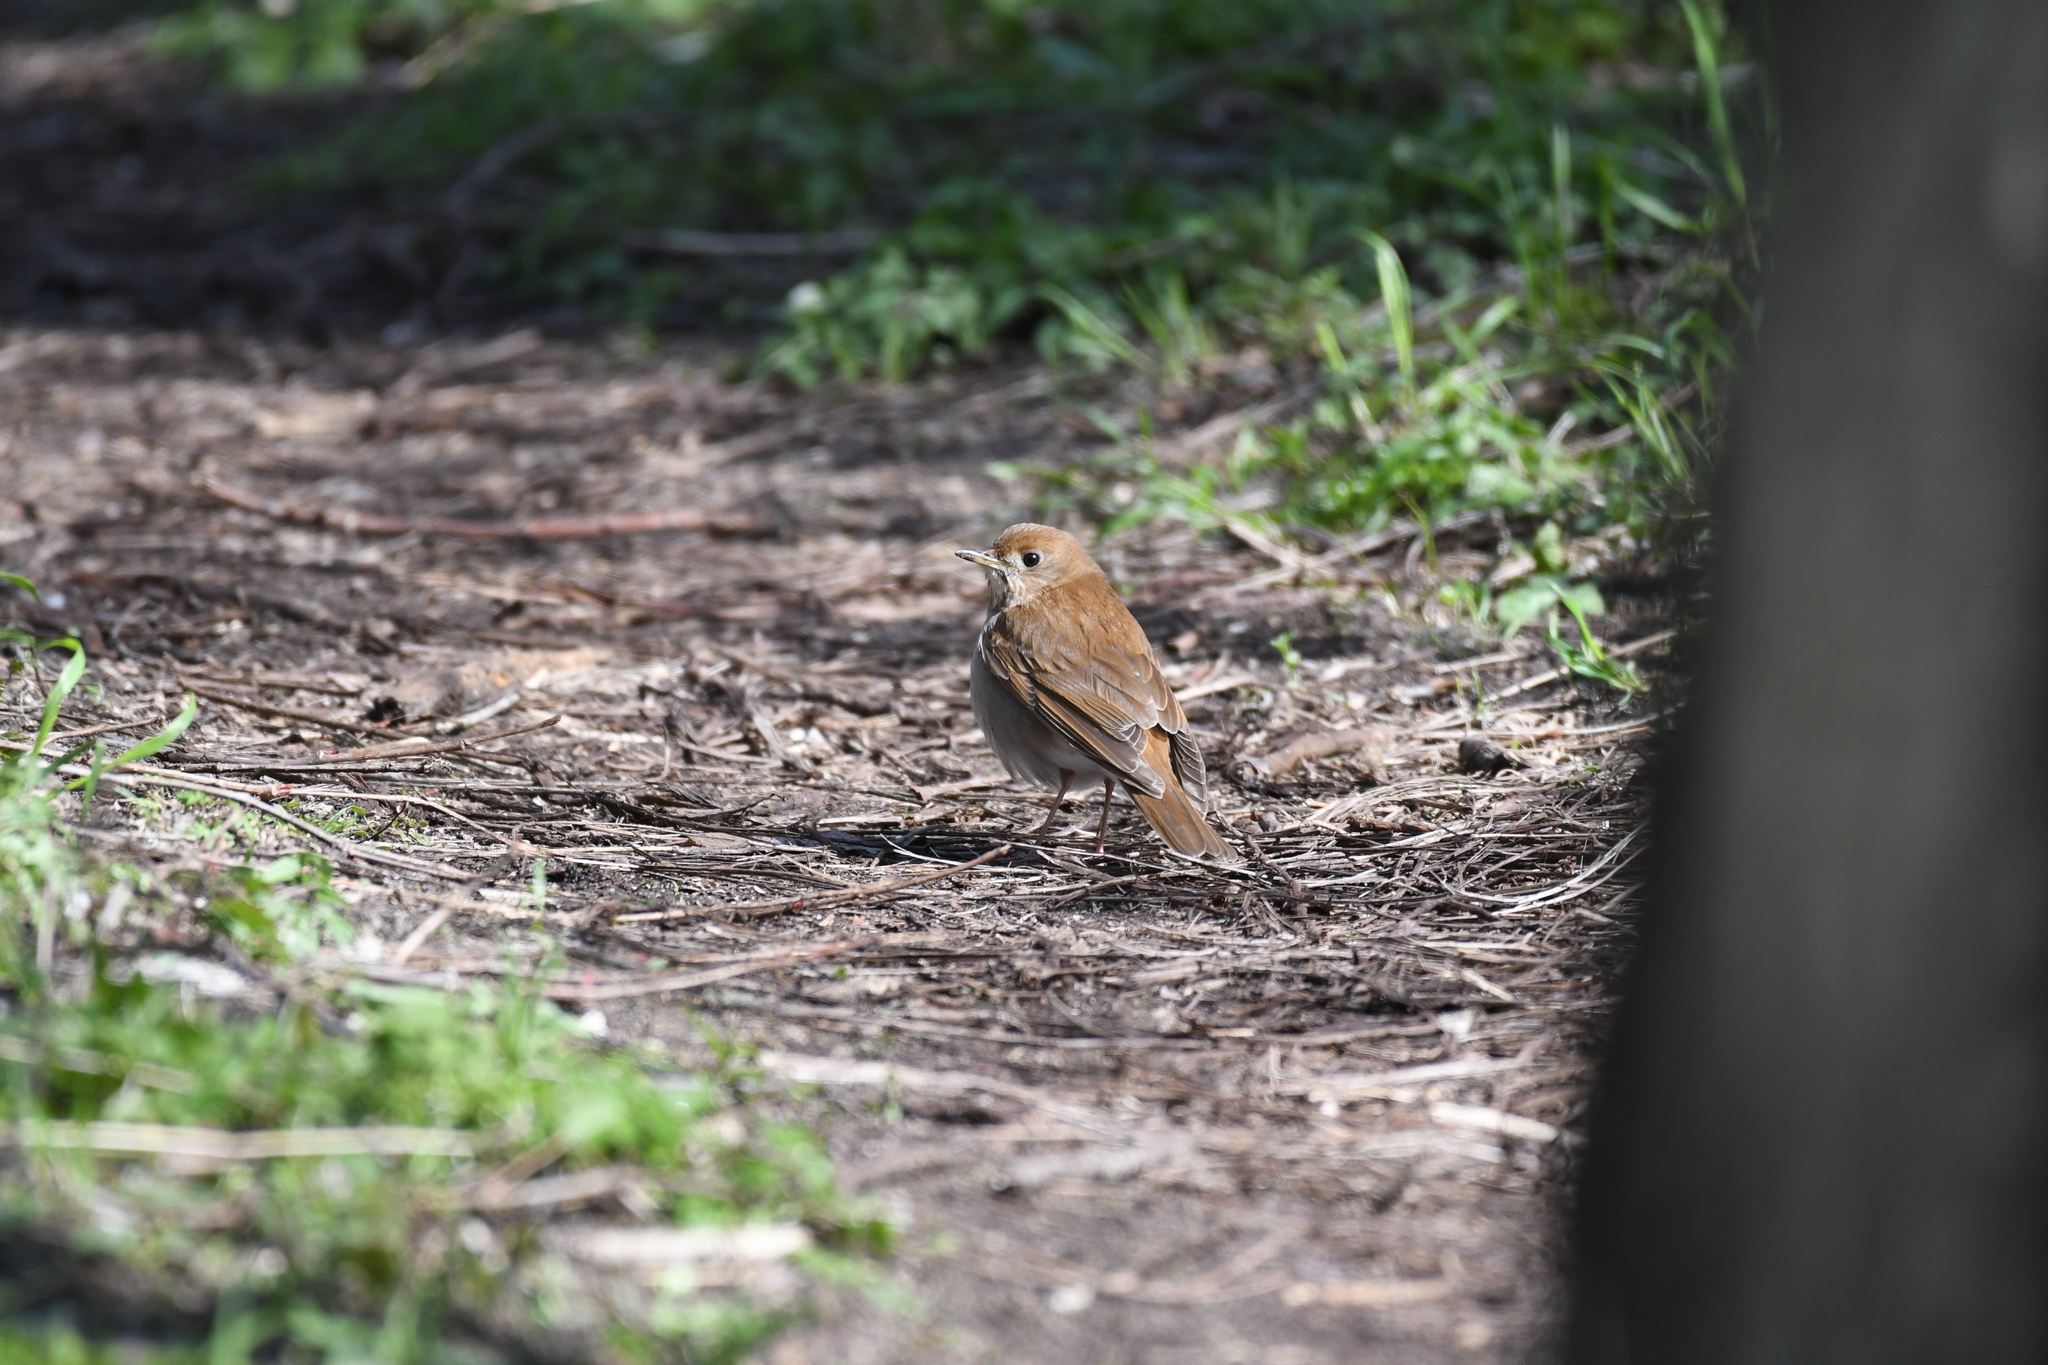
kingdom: Animalia
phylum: Chordata
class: Aves
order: Passeriformes
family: Turdidae
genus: Catharus
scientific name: Catharus fuscescens
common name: Veery
